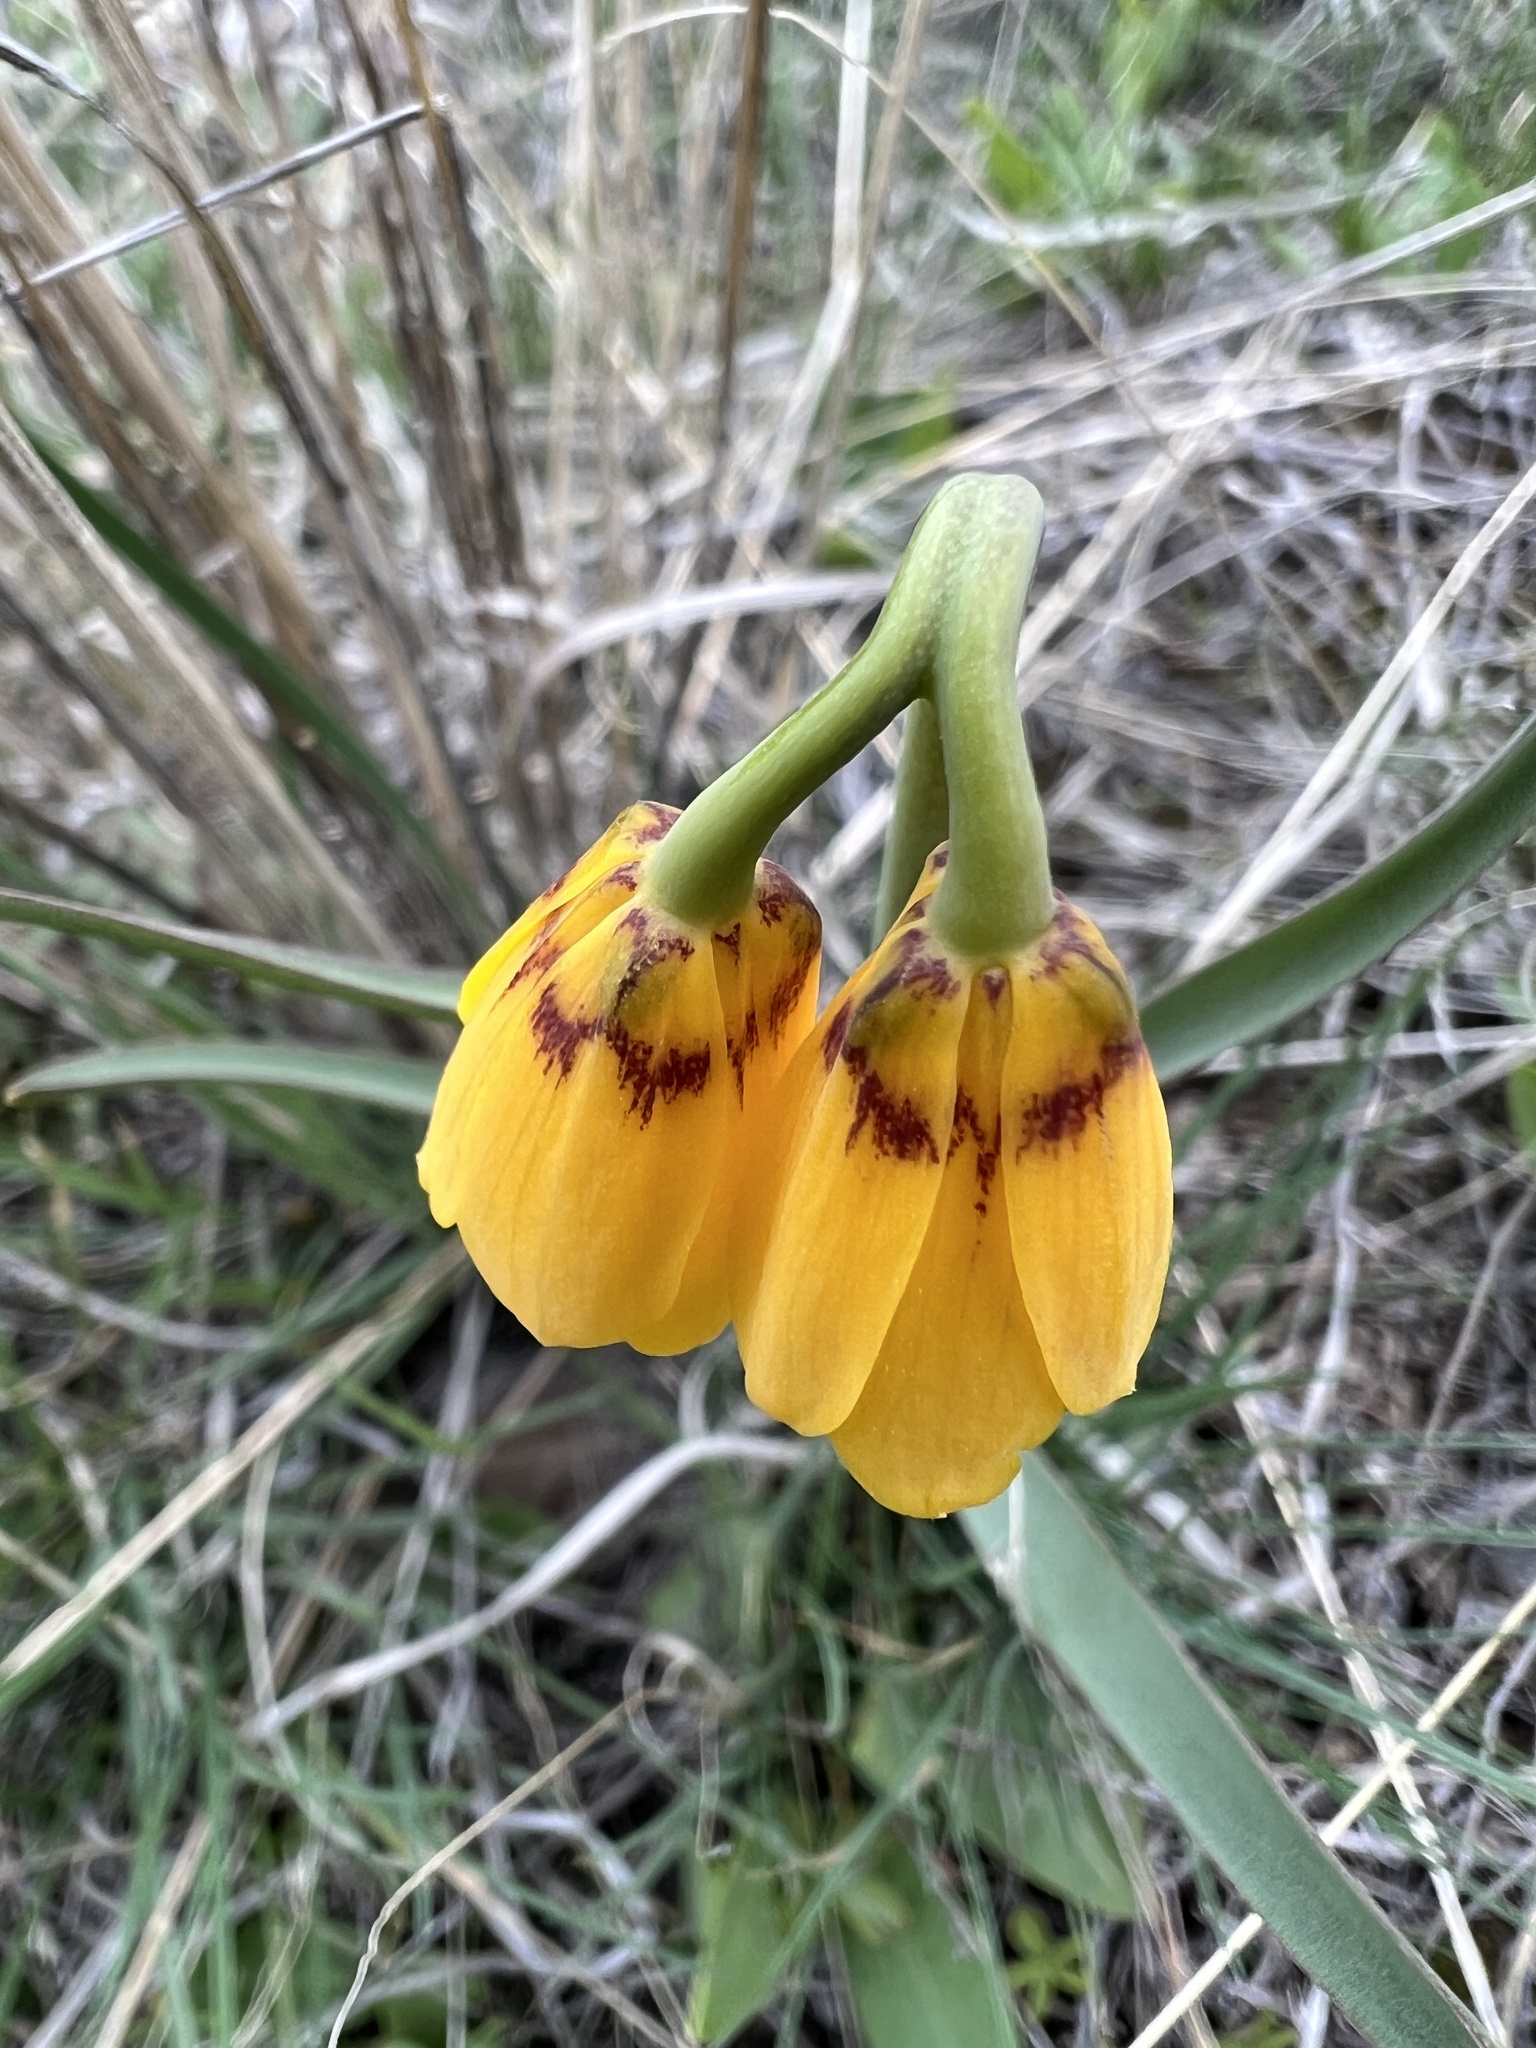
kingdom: Plantae
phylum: Tracheophyta
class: Liliopsida
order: Liliales
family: Liliaceae
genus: Fritillaria
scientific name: Fritillaria pudica
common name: Yellow fritillary
